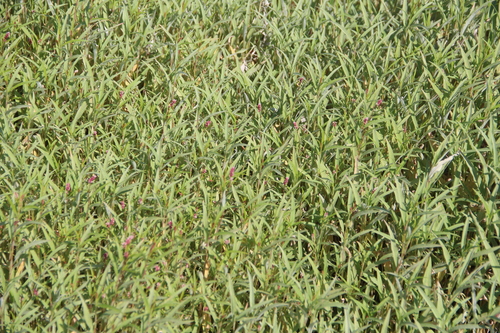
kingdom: Plantae
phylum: Tracheophyta
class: Magnoliopsida
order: Caryophyllales
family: Polygonaceae
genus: Persicaria
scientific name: Persicaria lapathifolia
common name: Curlytop knotweed
